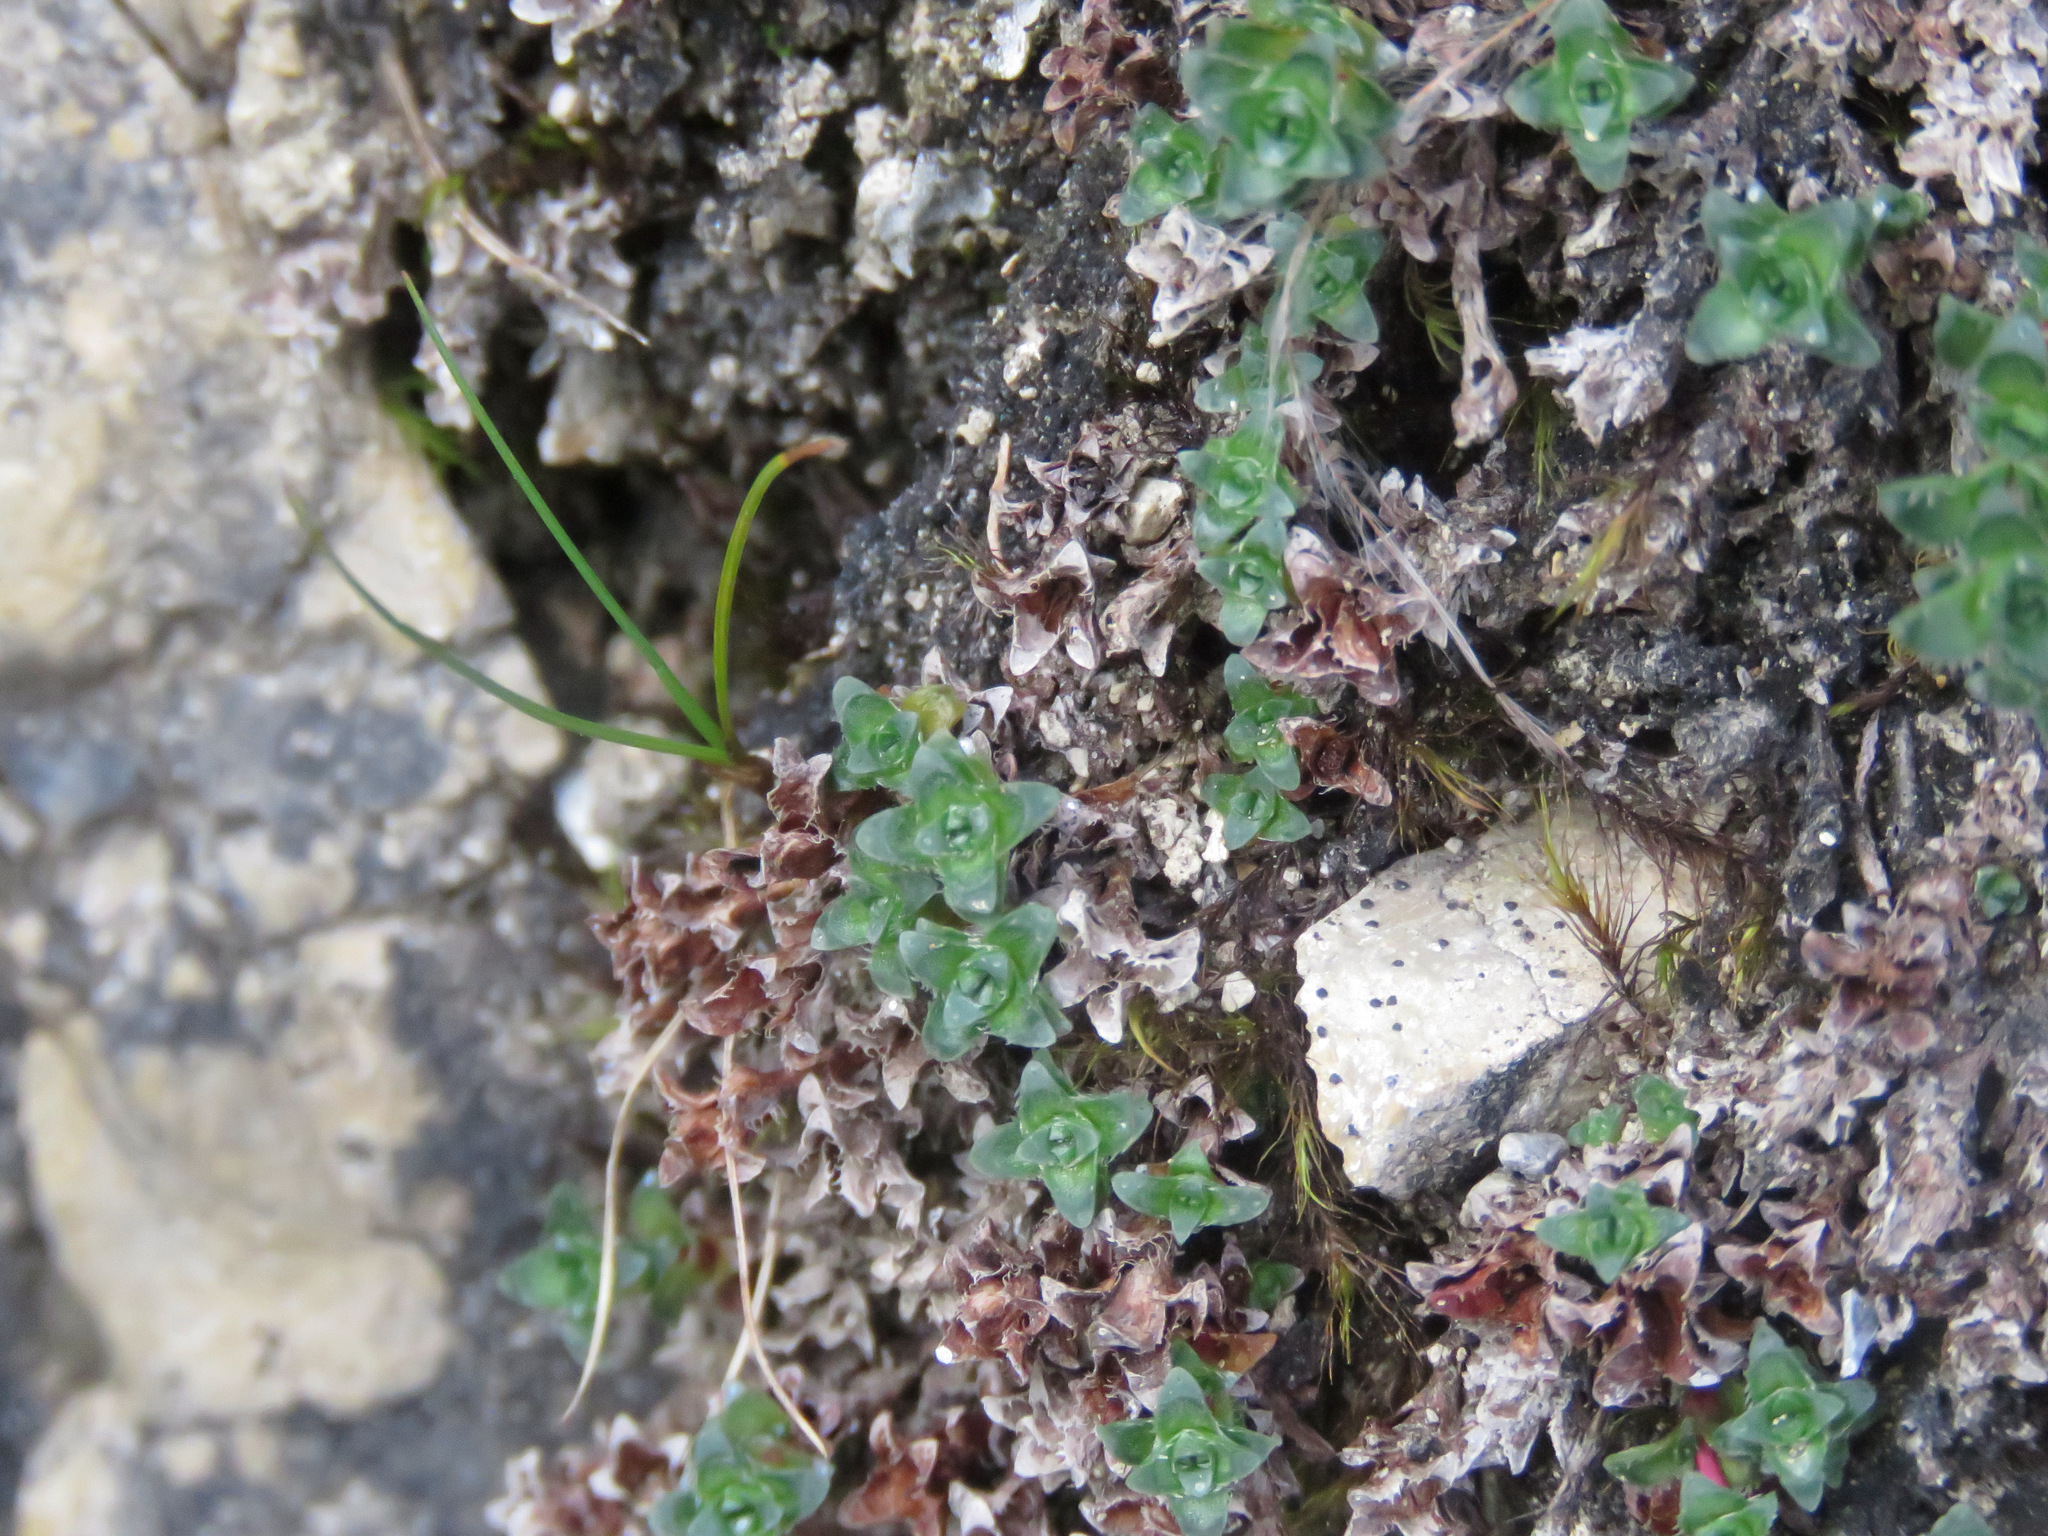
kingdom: Plantae
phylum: Tracheophyta
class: Magnoliopsida
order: Saxifragales
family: Saxifragaceae
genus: Saxifraga
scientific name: Saxifraga oppositifolia
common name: Purple saxifrage
